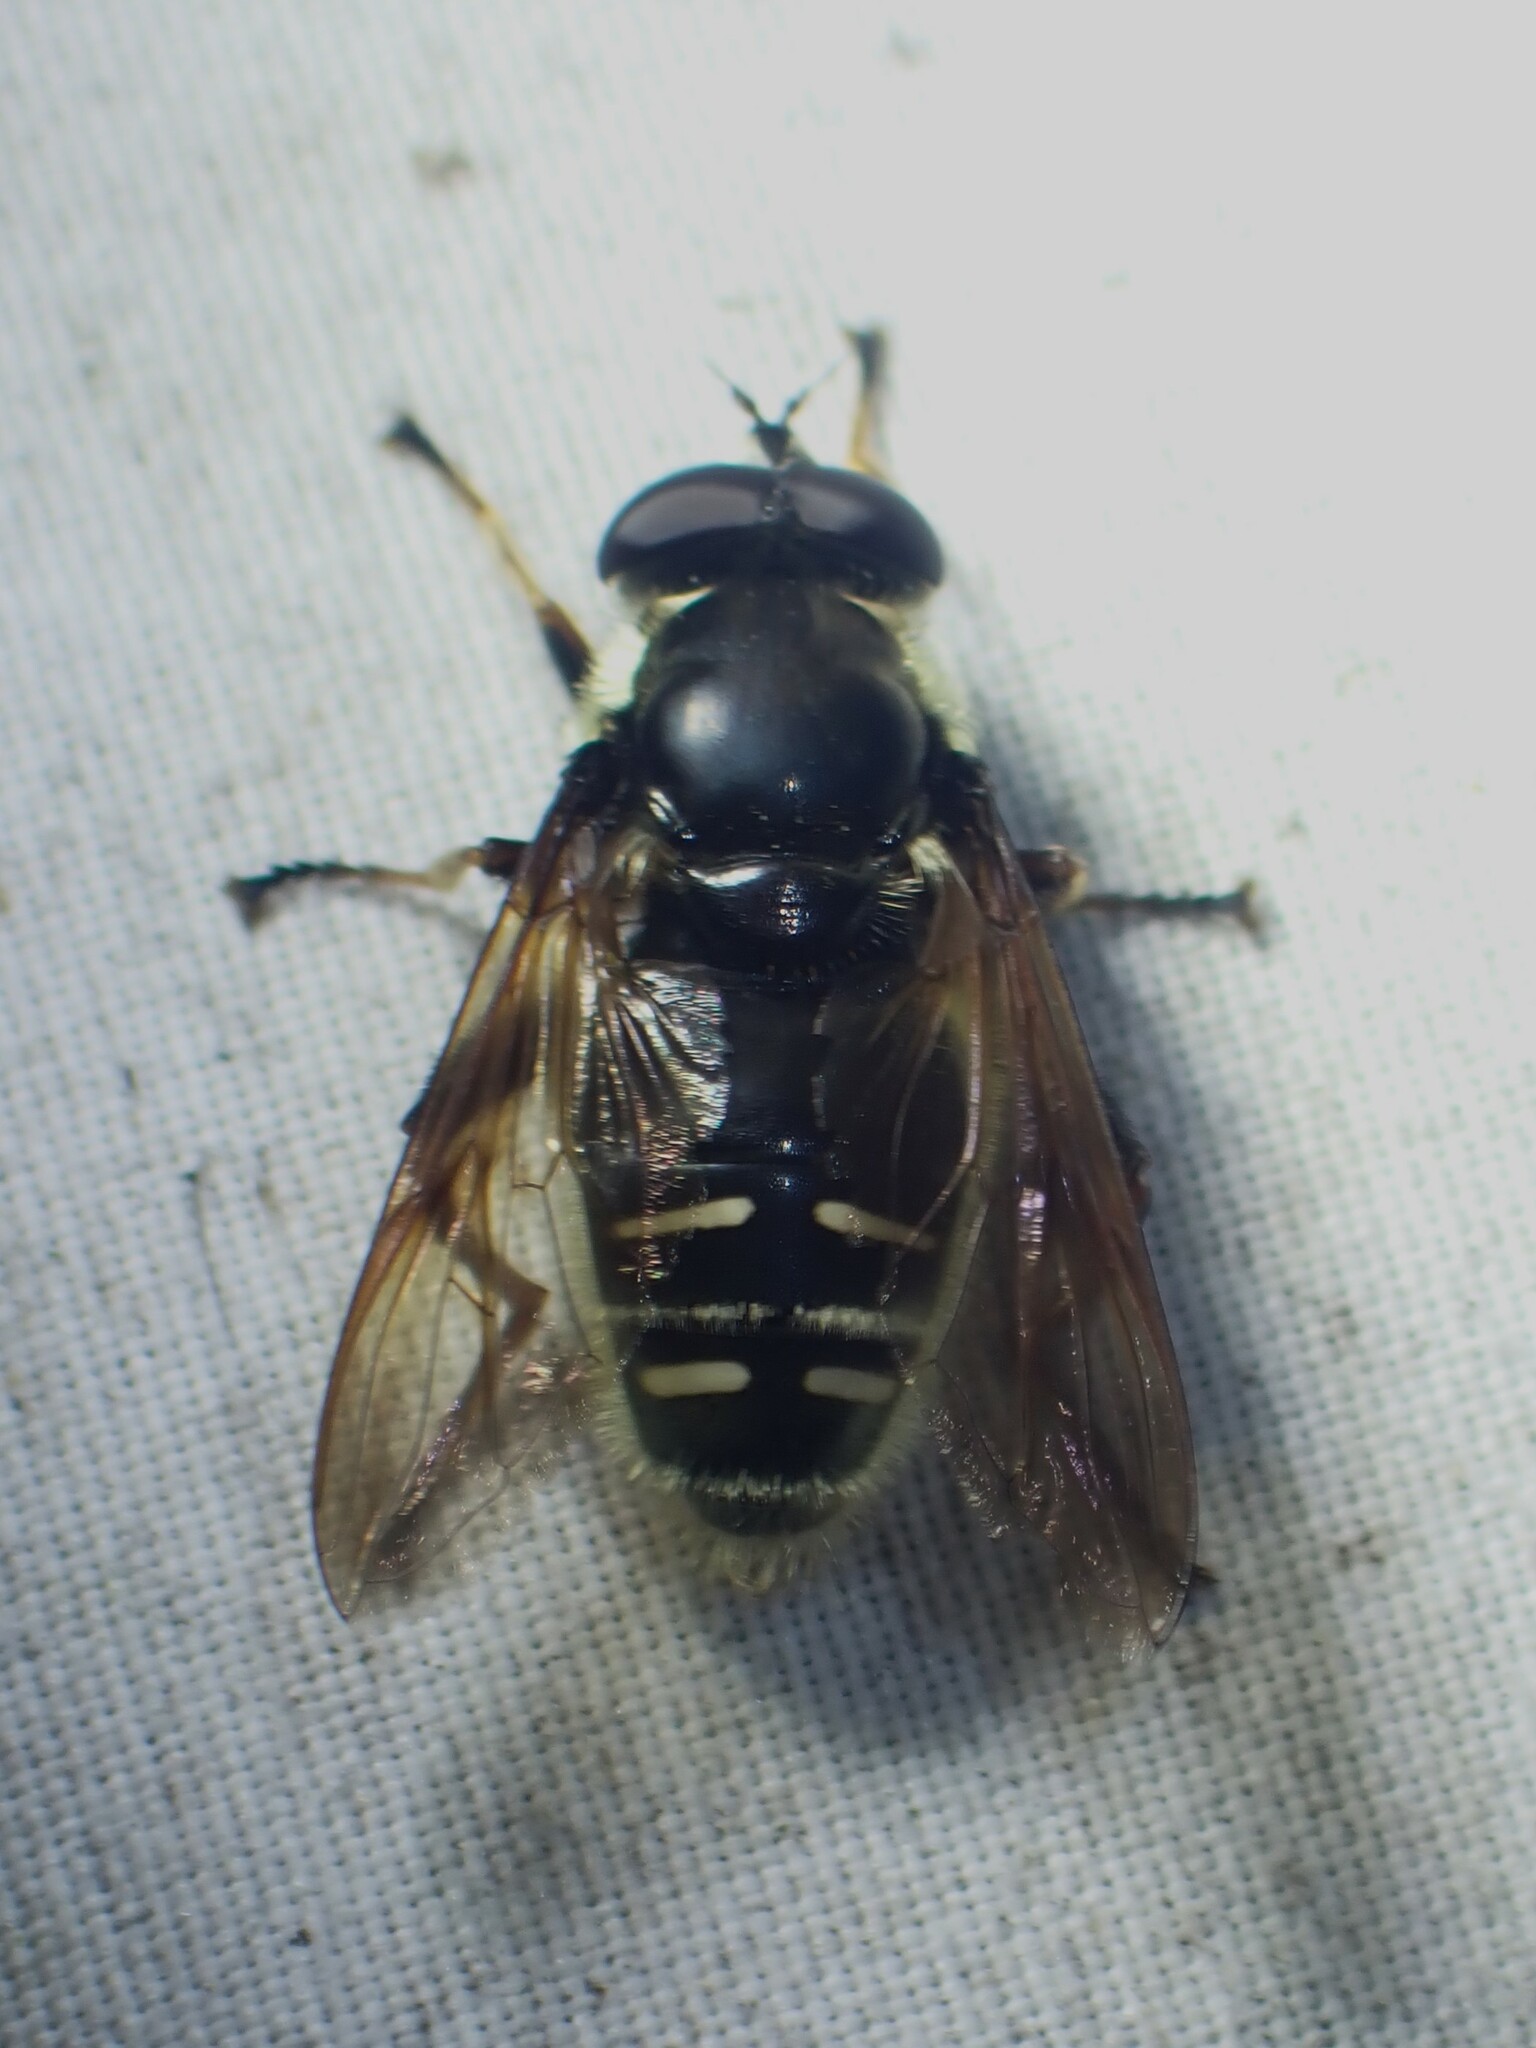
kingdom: Animalia
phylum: Arthropoda
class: Insecta
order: Diptera
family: Syrphidae
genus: Sericomyia
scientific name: Sericomyia militaris
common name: Narrow-banded pond fly
